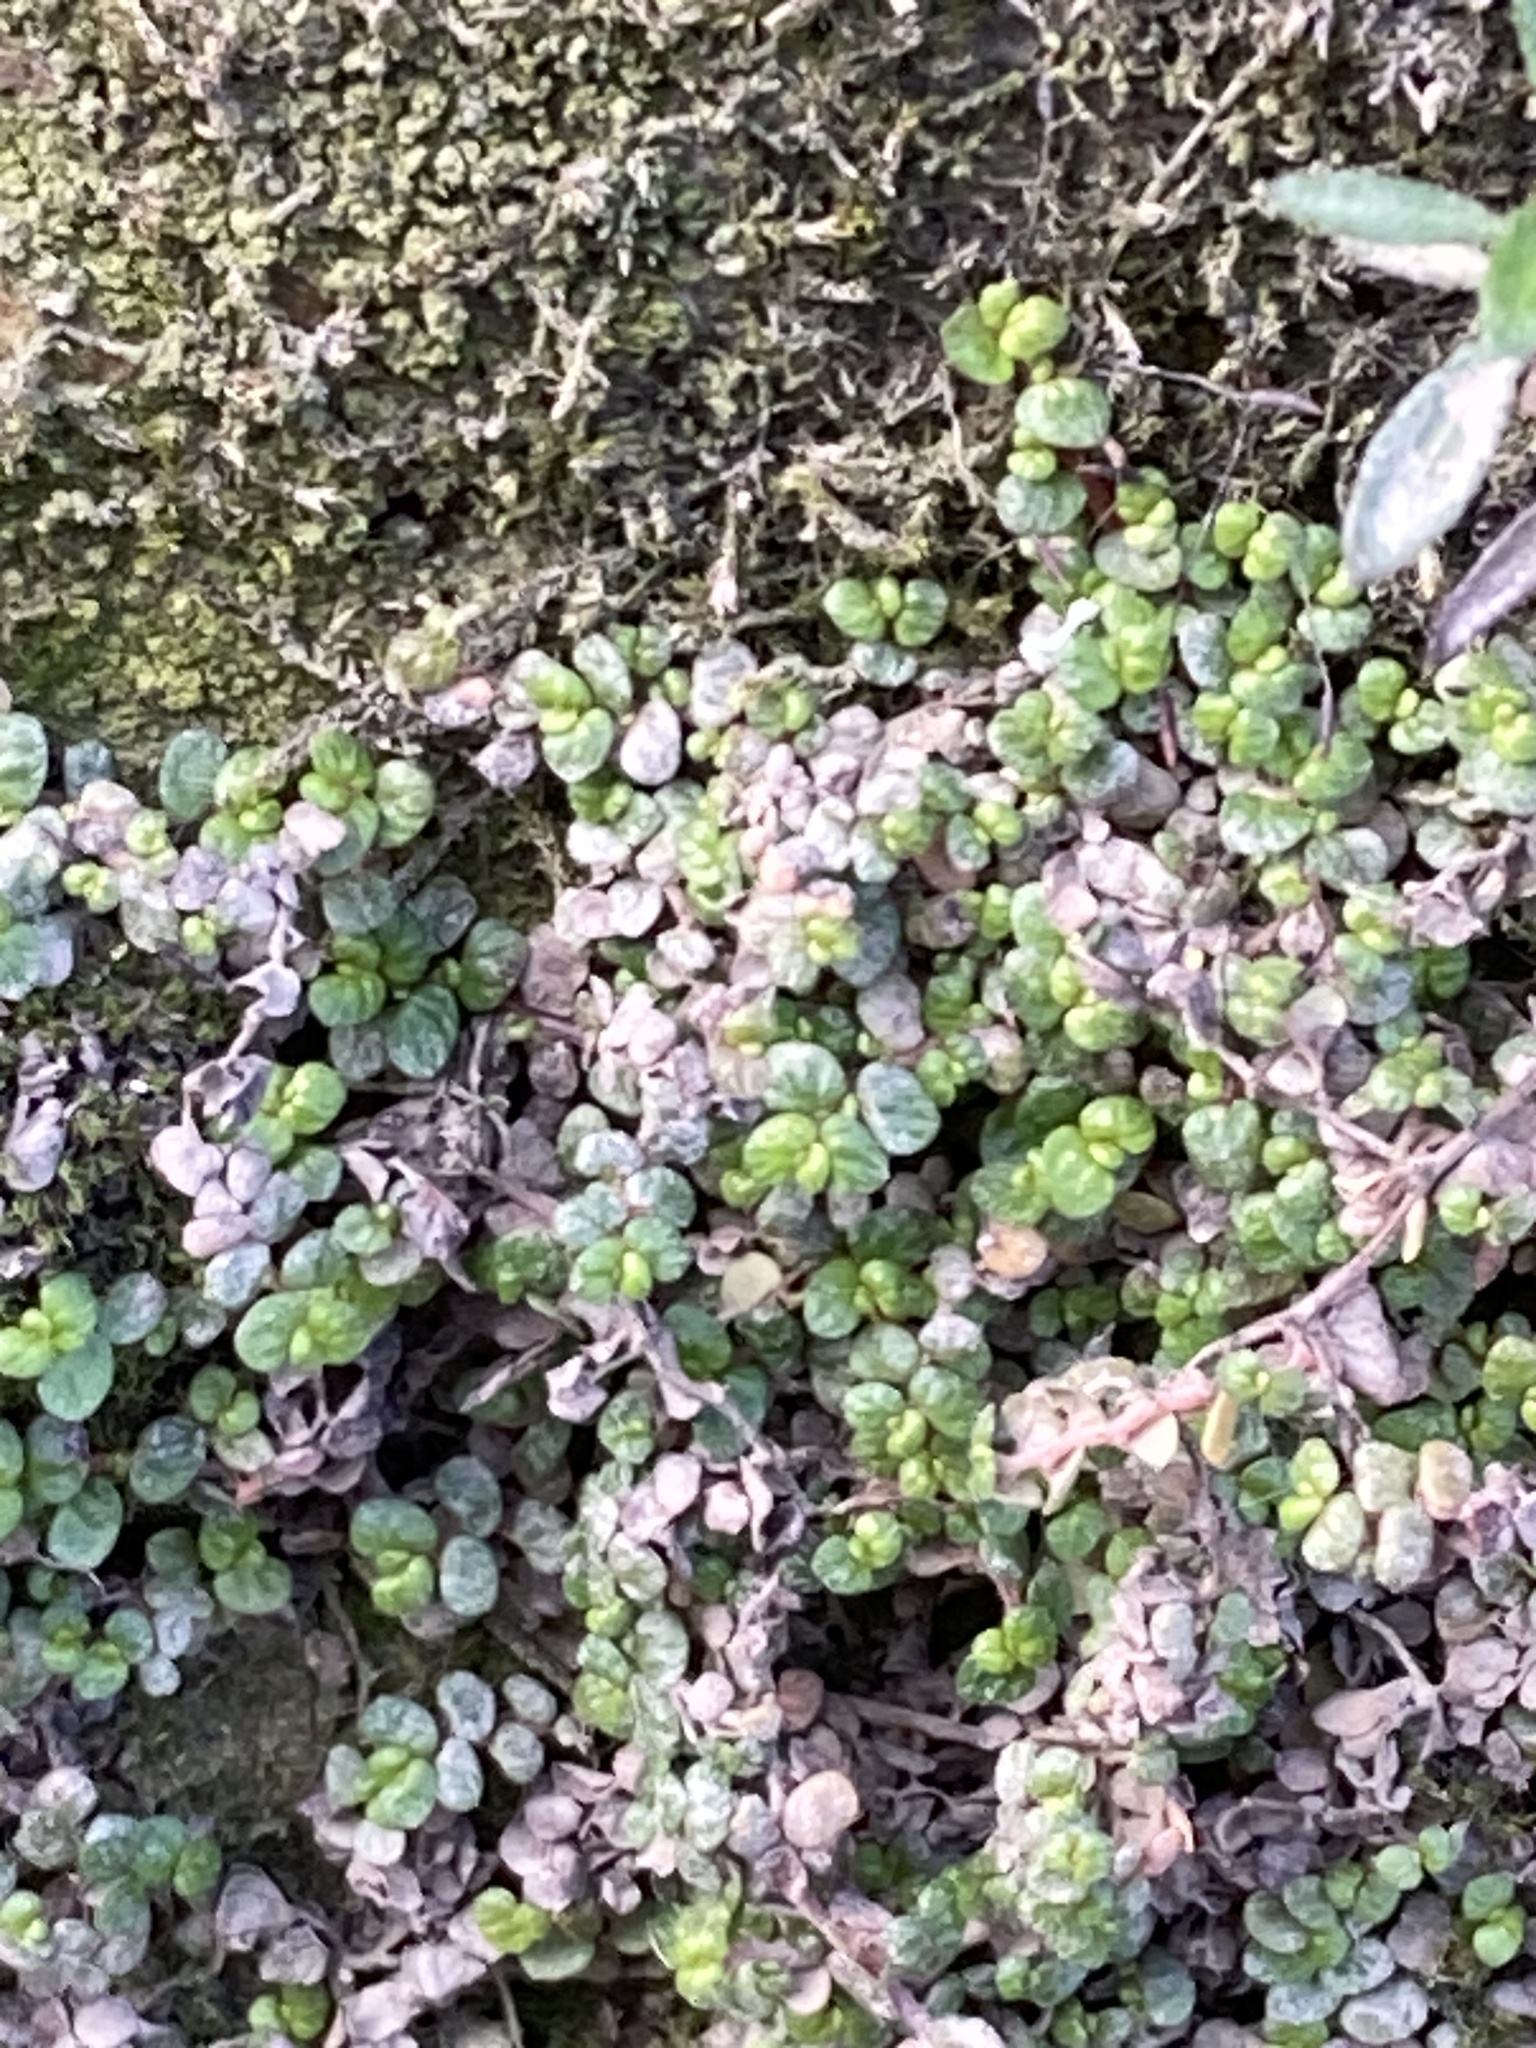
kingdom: Plantae
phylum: Tracheophyta
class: Magnoliopsida
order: Rosales
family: Urticaceae
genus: Soleirolia
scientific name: Soleirolia soleirolii
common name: Mind-your-own-business
